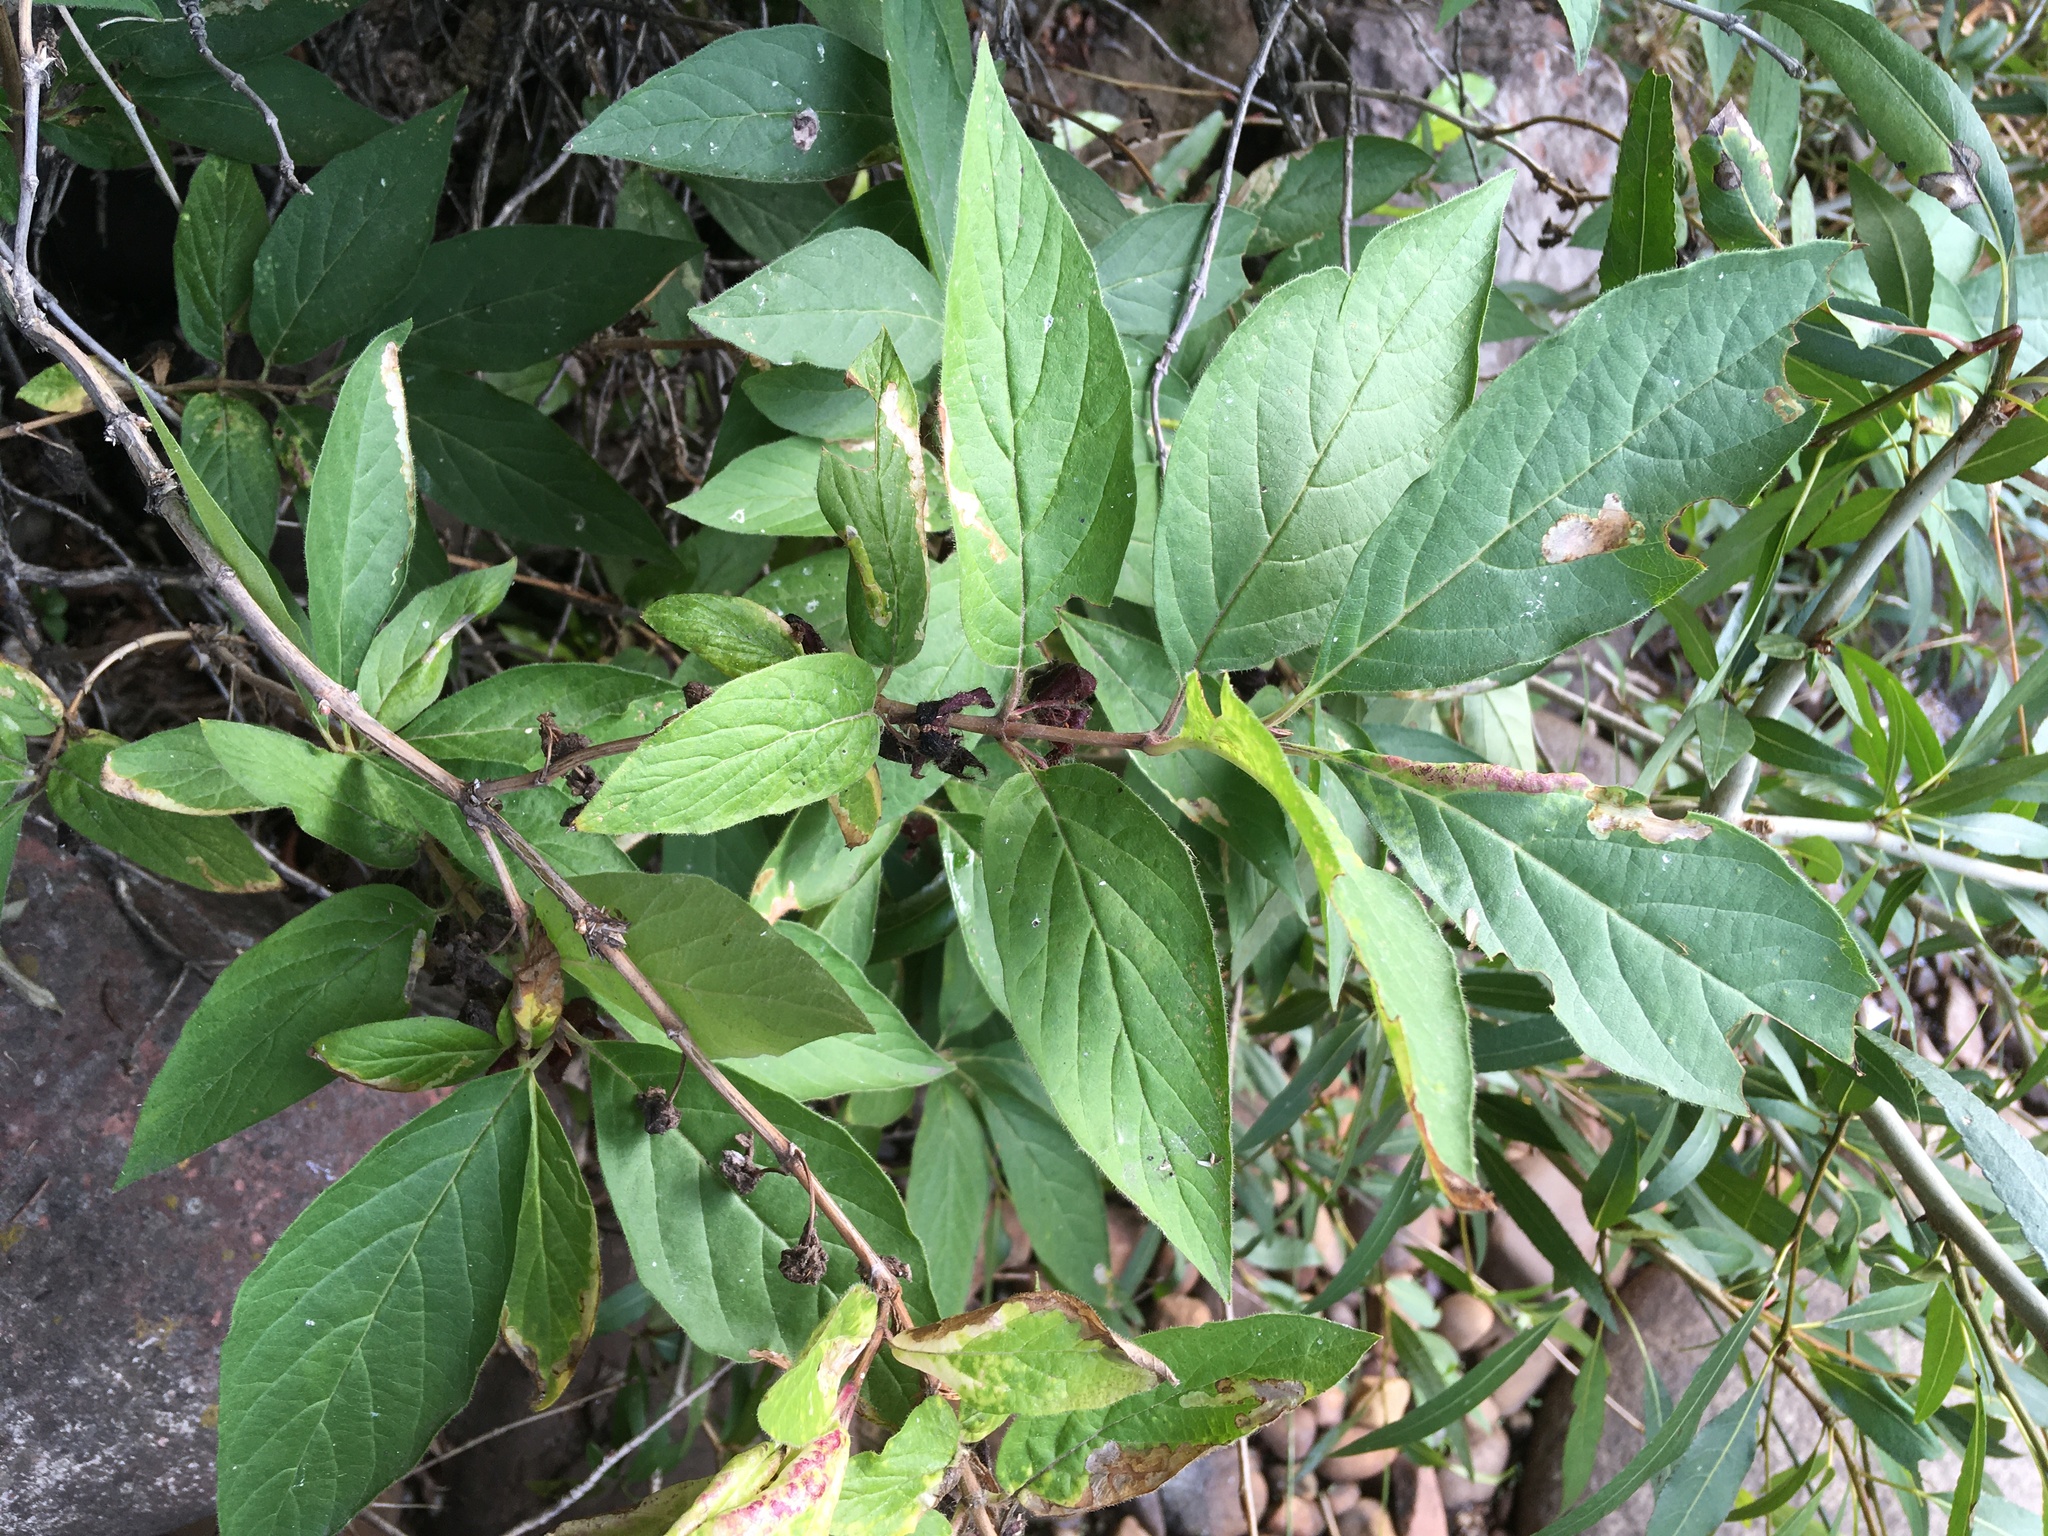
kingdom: Plantae
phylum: Tracheophyta
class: Magnoliopsida
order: Dipsacales
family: Caprifoliaceae
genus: Lonicera
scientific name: Lonicera involucrata
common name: Californian honeysuckle
